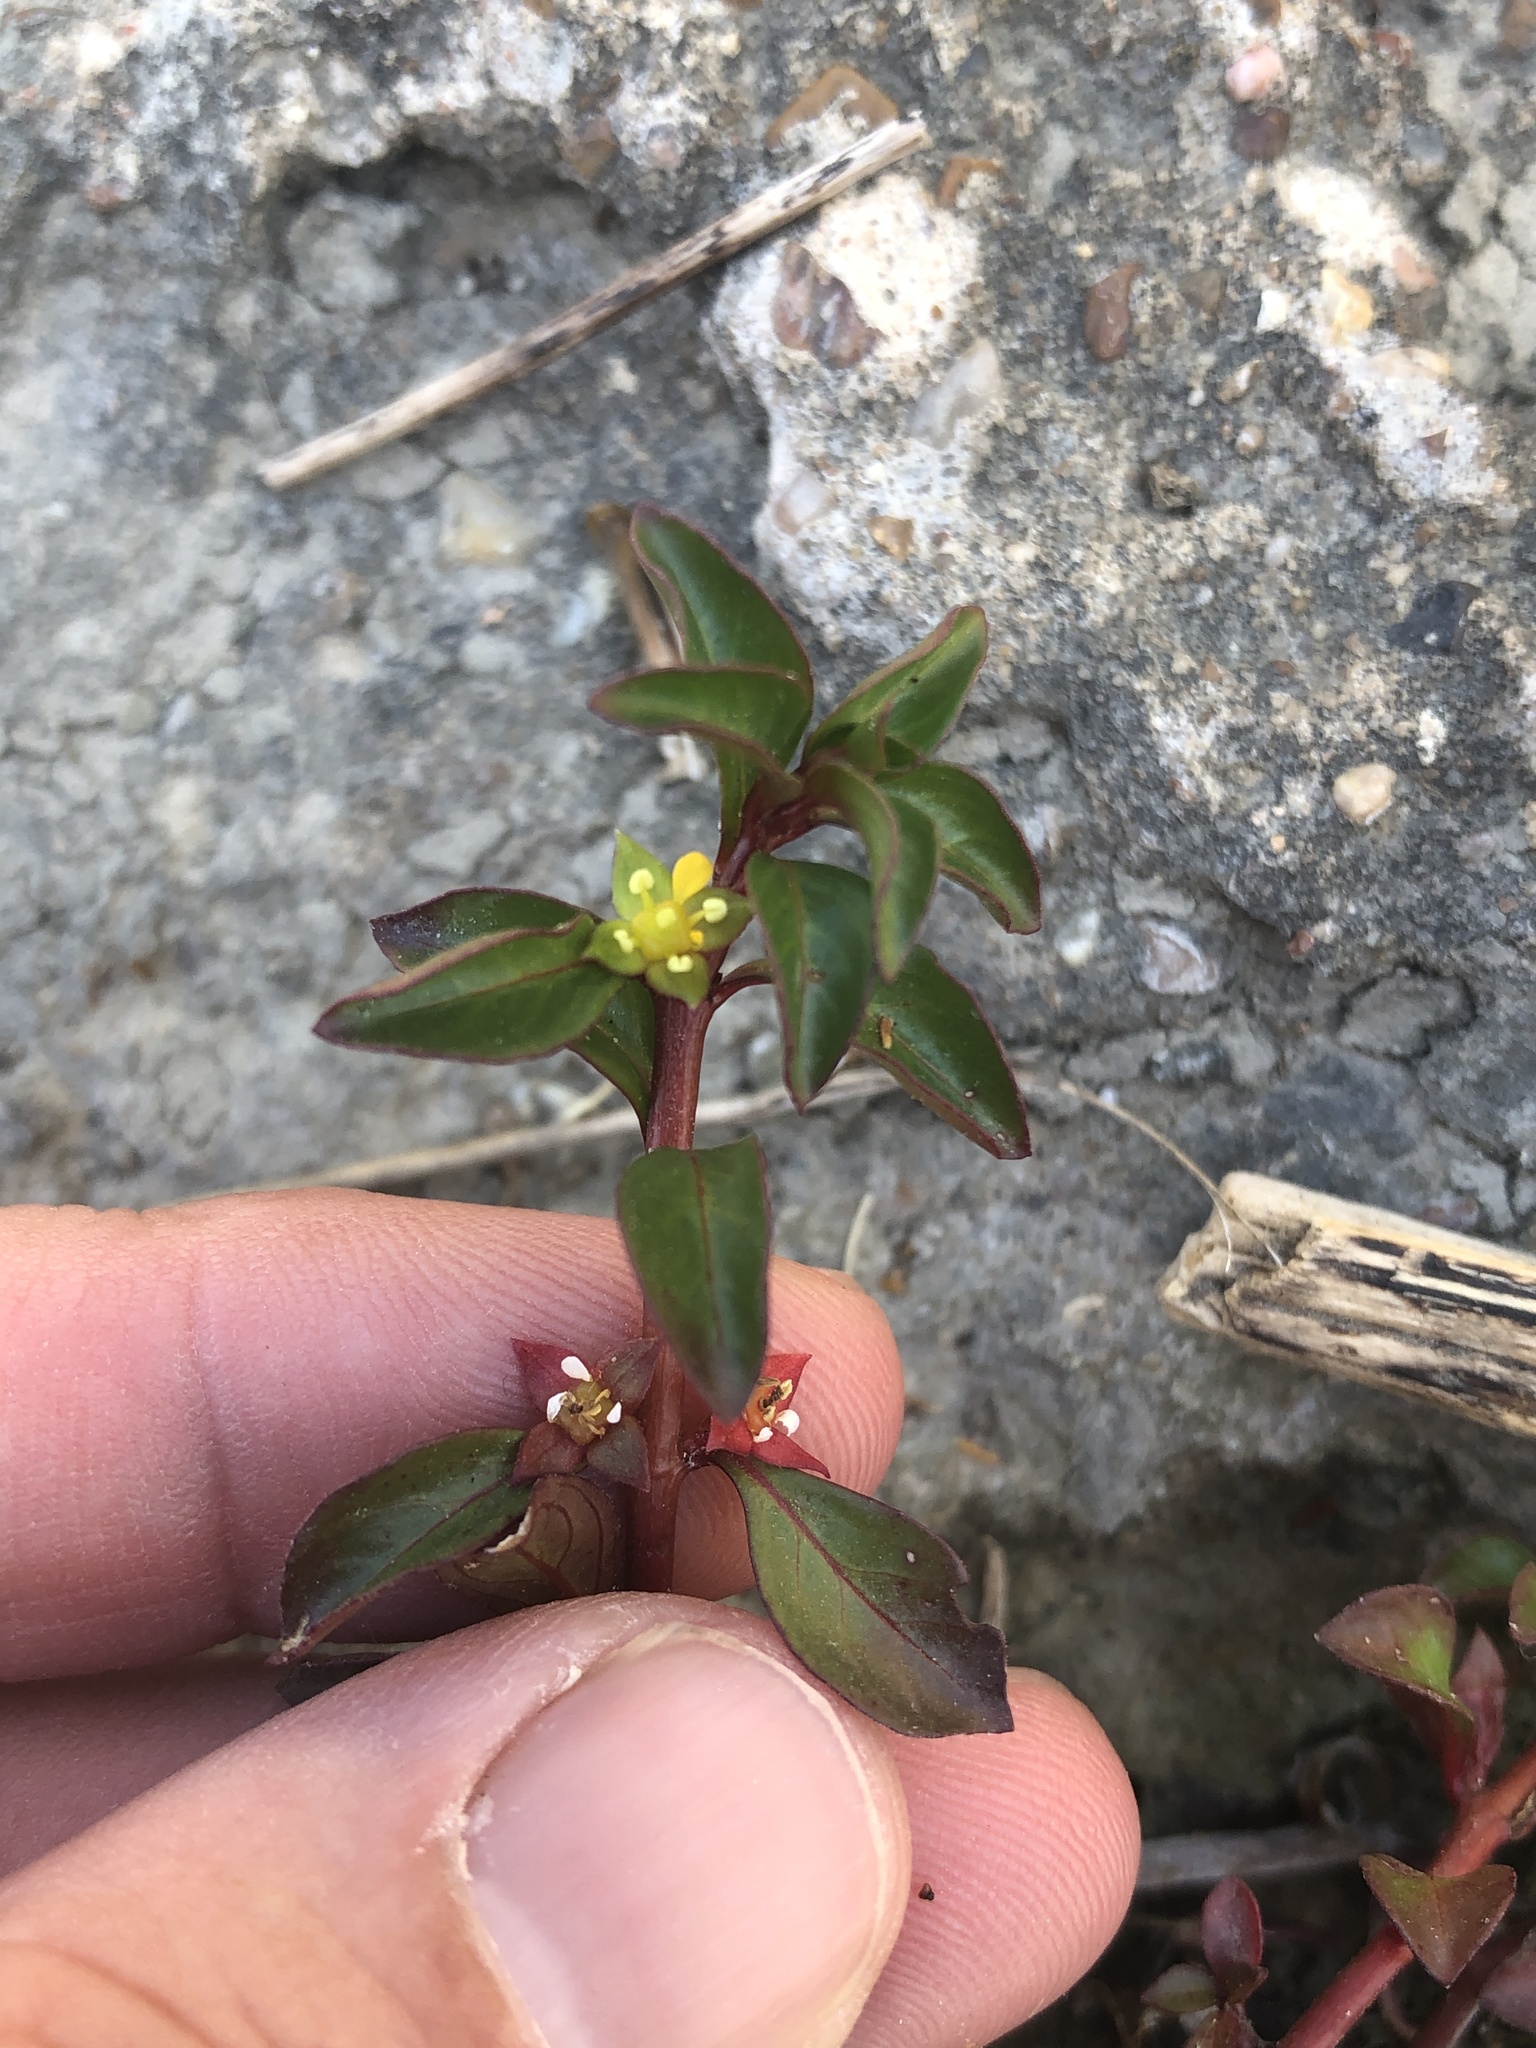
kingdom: Plantae
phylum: Tracheophyta
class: Magnoliopsida
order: Myrtales
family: Onagraceae
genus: Ludwigia
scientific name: Ludwigia repens
